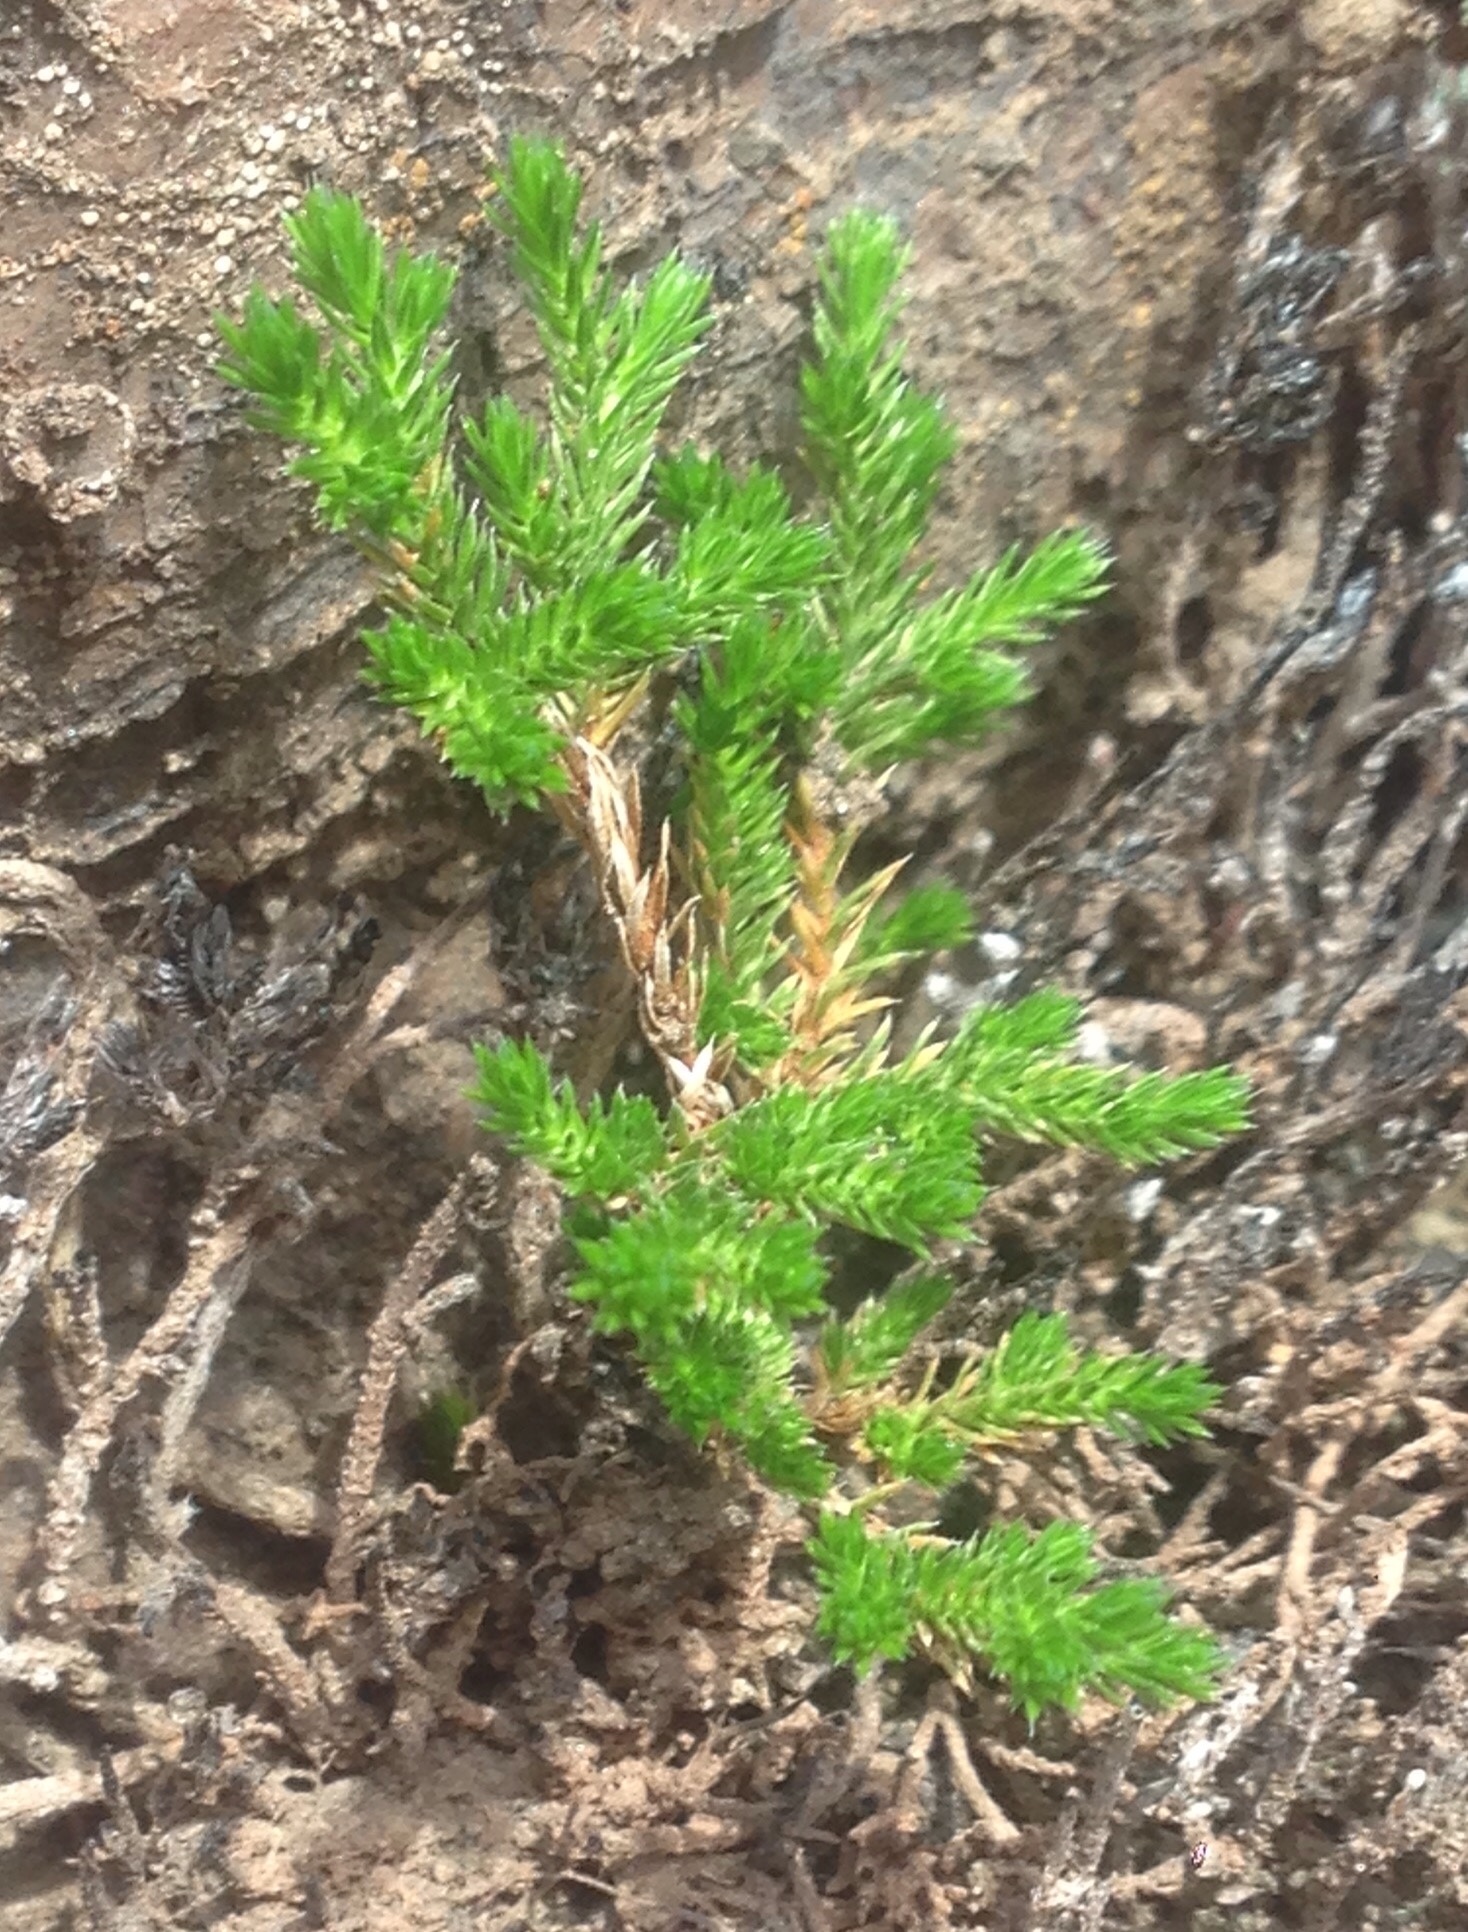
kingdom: Plantae
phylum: Tracheophyta
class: Lycopodiopsida
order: Selaginellales
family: Selaginellaceae
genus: Selaginella
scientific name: Selaginella bigelovii
